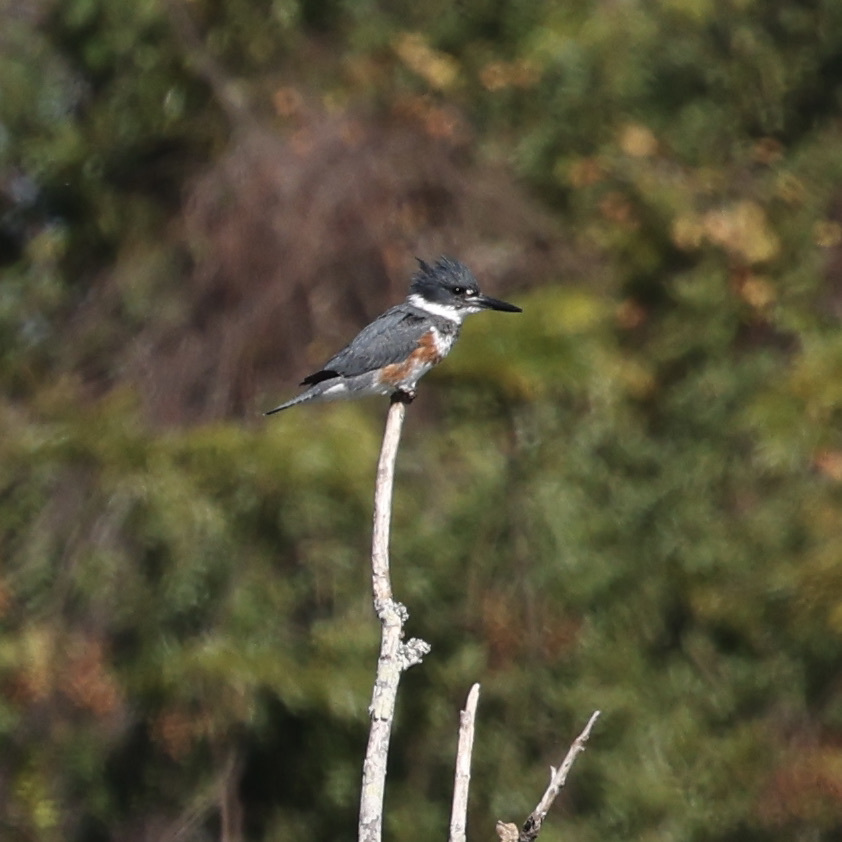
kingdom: Animalia
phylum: Chordata
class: Aves
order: Coraciiformes
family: Alcedinidae
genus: Megaceryle
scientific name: Megaceryle alcyon
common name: Belted kingfisher
